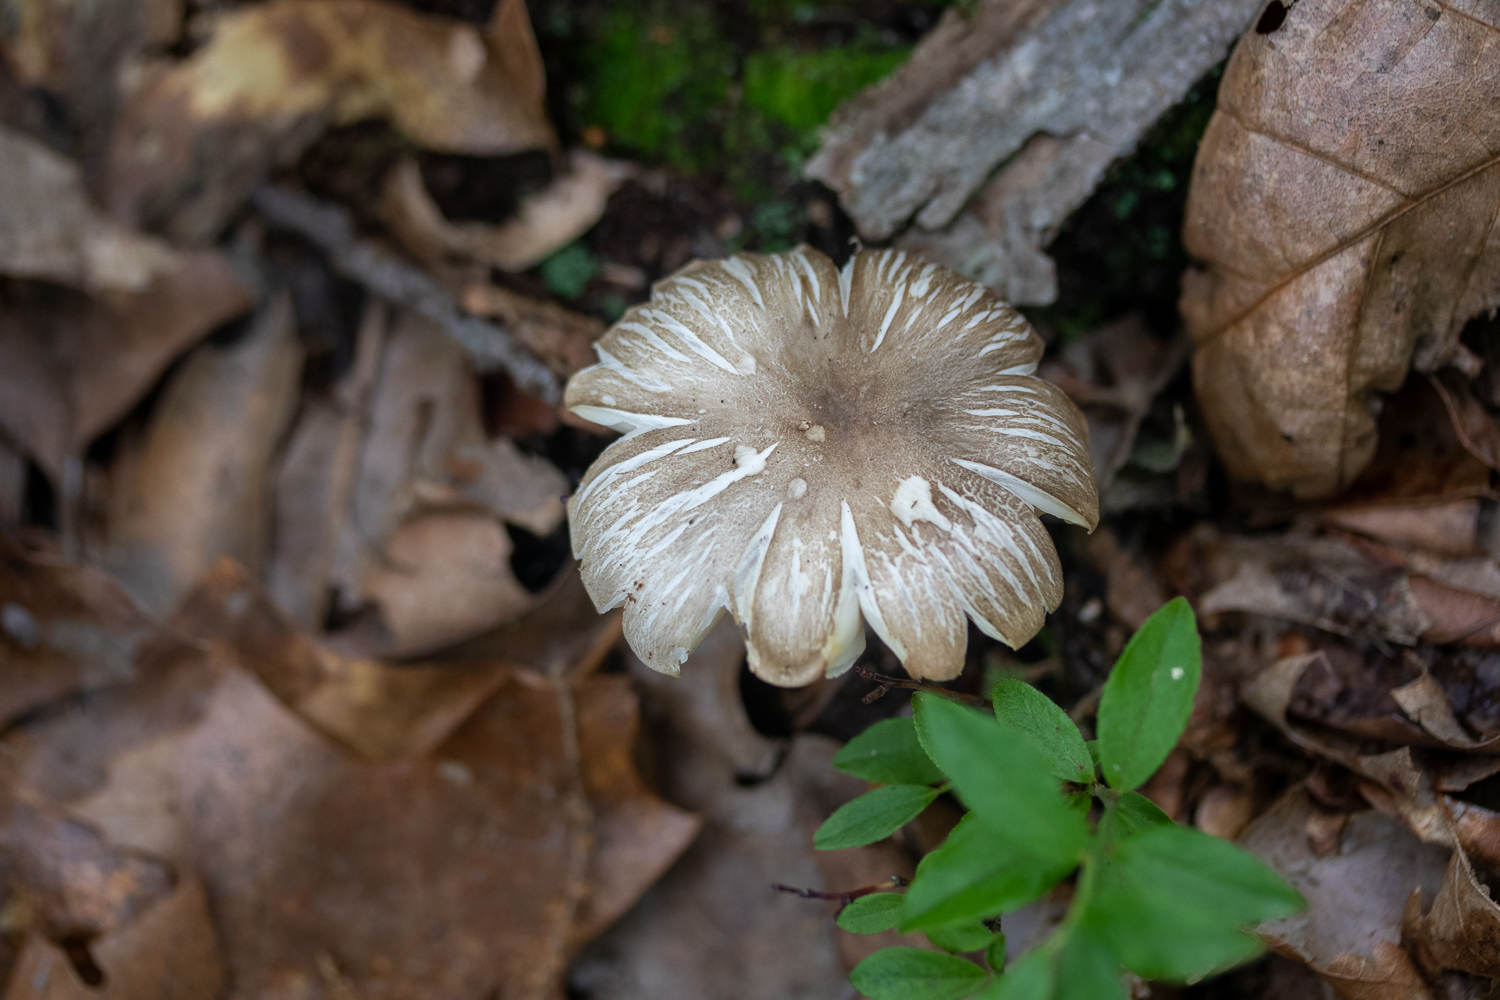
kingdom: Fungi
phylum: Basidiomycota
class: Agaricomycetes
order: Agaricales
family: Tricholomataceae
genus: Megacollybia
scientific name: Megacollybia rodmanii
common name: Eastern american platterful mushroom
